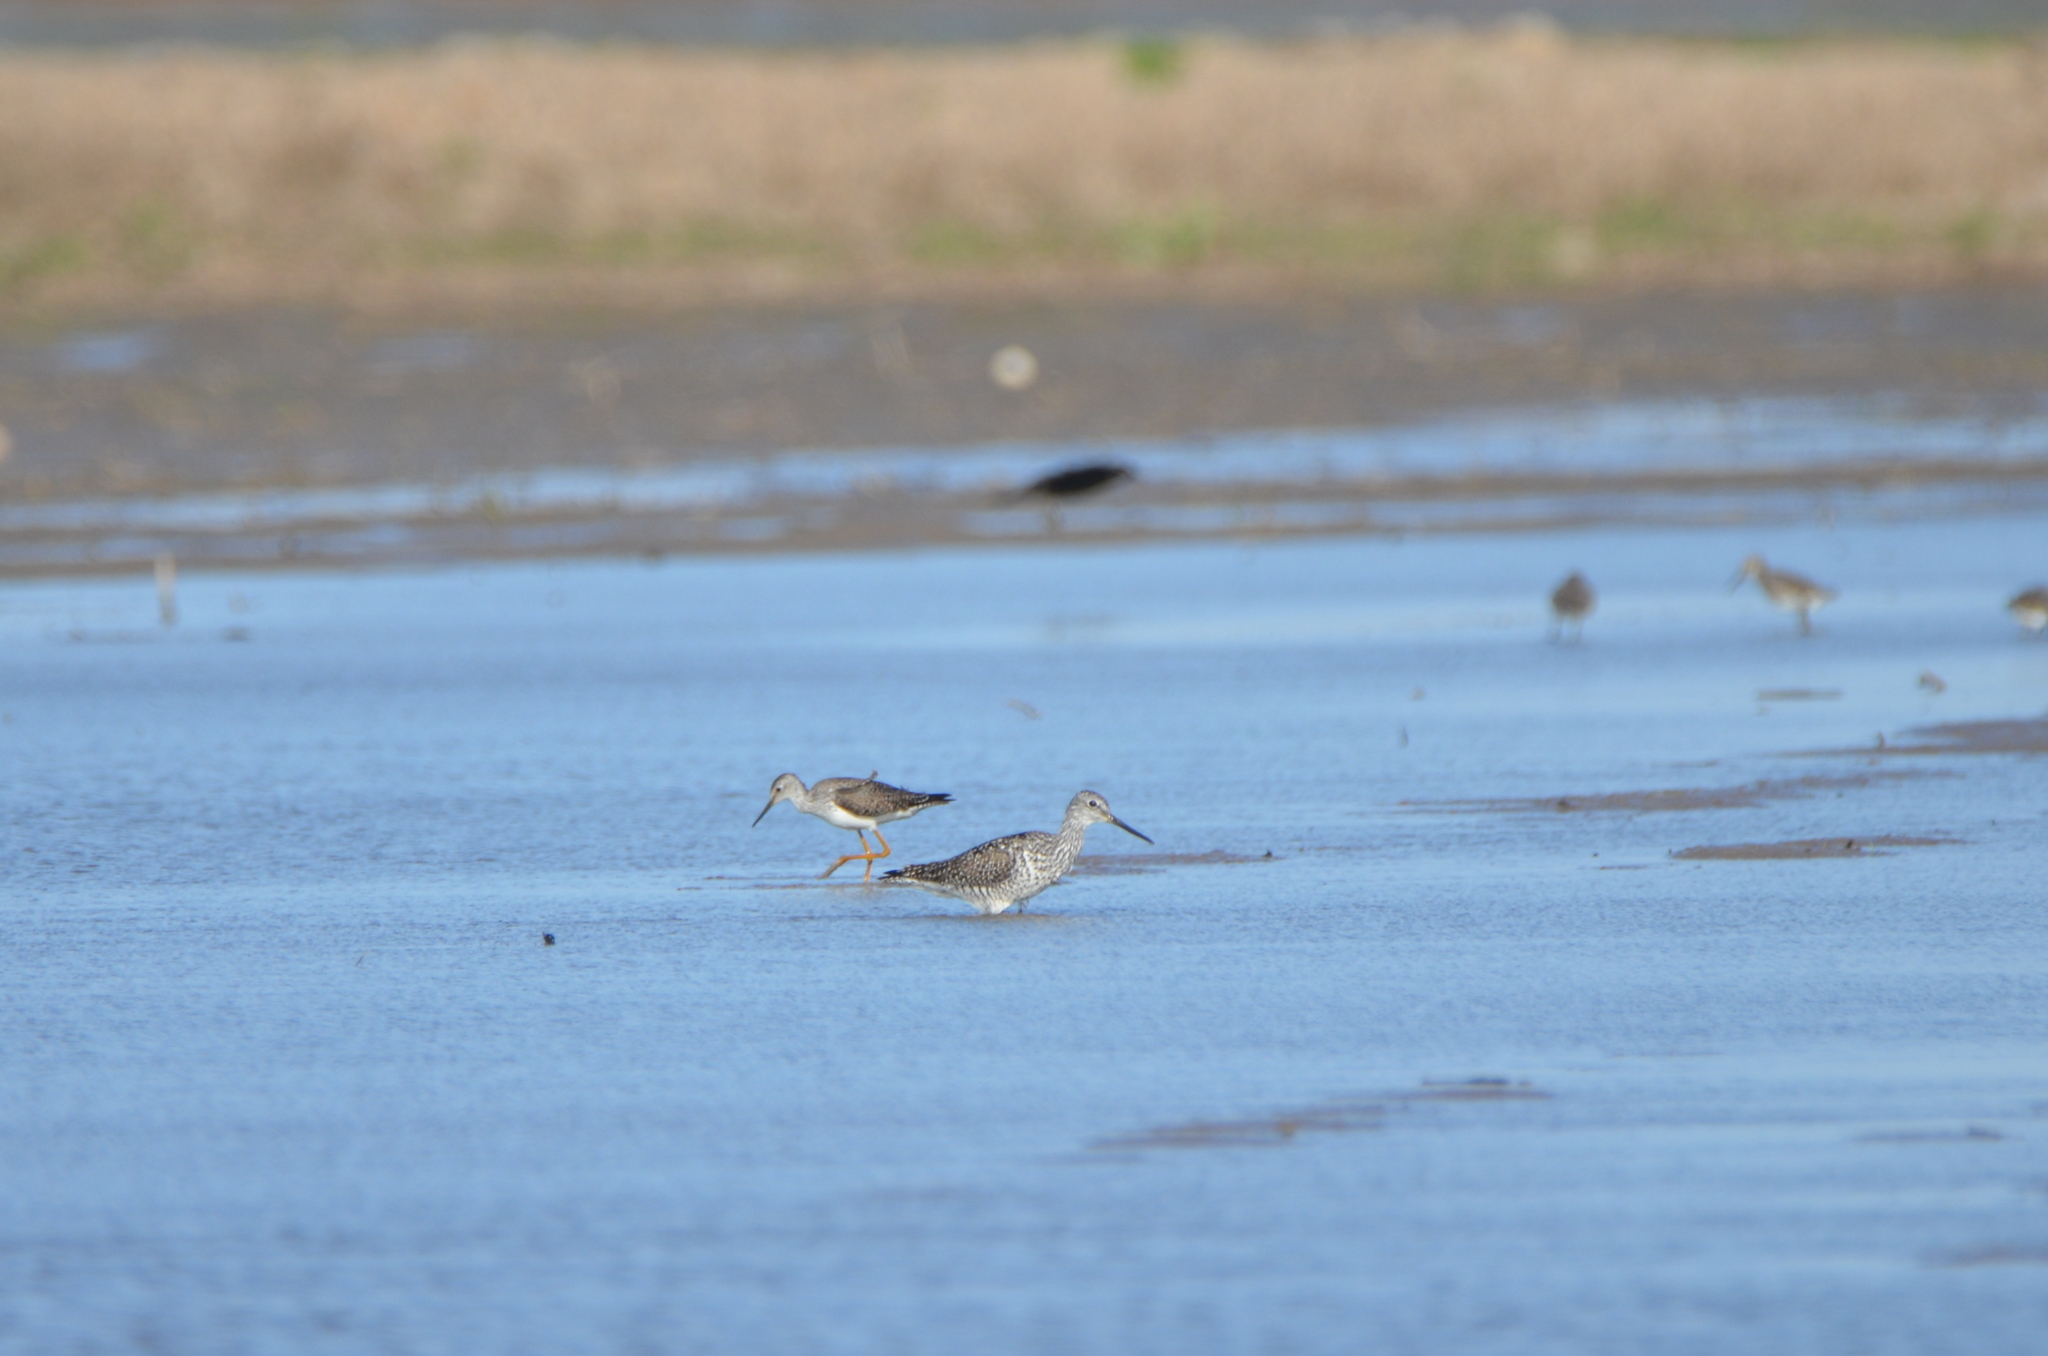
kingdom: Animalia
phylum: Chordata
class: Aves
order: Charadriiformes
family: Scolopacidae
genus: Tringa
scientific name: Tringa melanoleuca
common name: Greater yellowlegs
